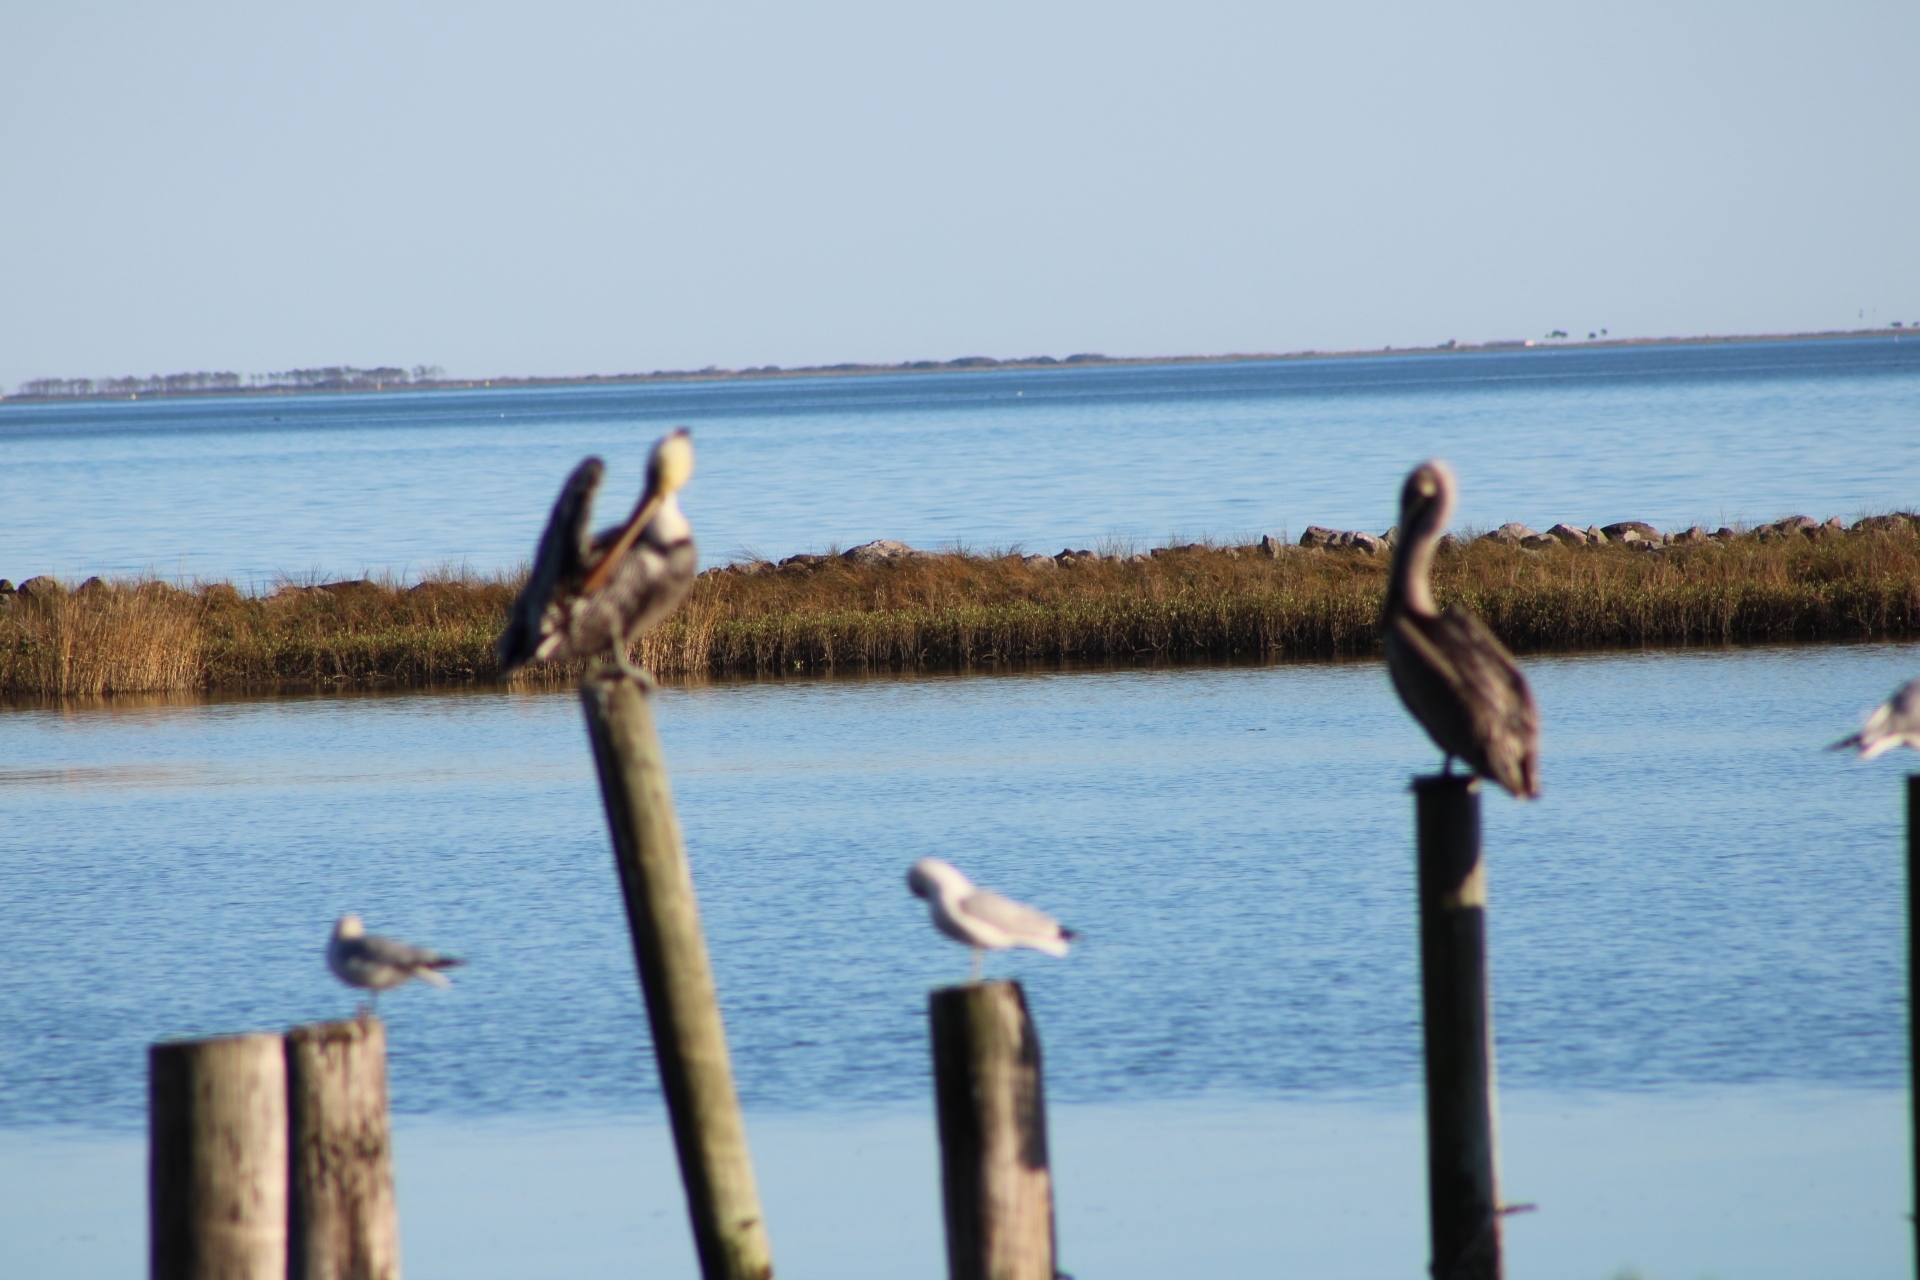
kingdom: Animalia
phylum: Chordata
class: Aves
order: Pelecaniformes
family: Pelecanidae
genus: Pelecanus
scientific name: Pelecanus occidentalis
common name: Brown pelican
